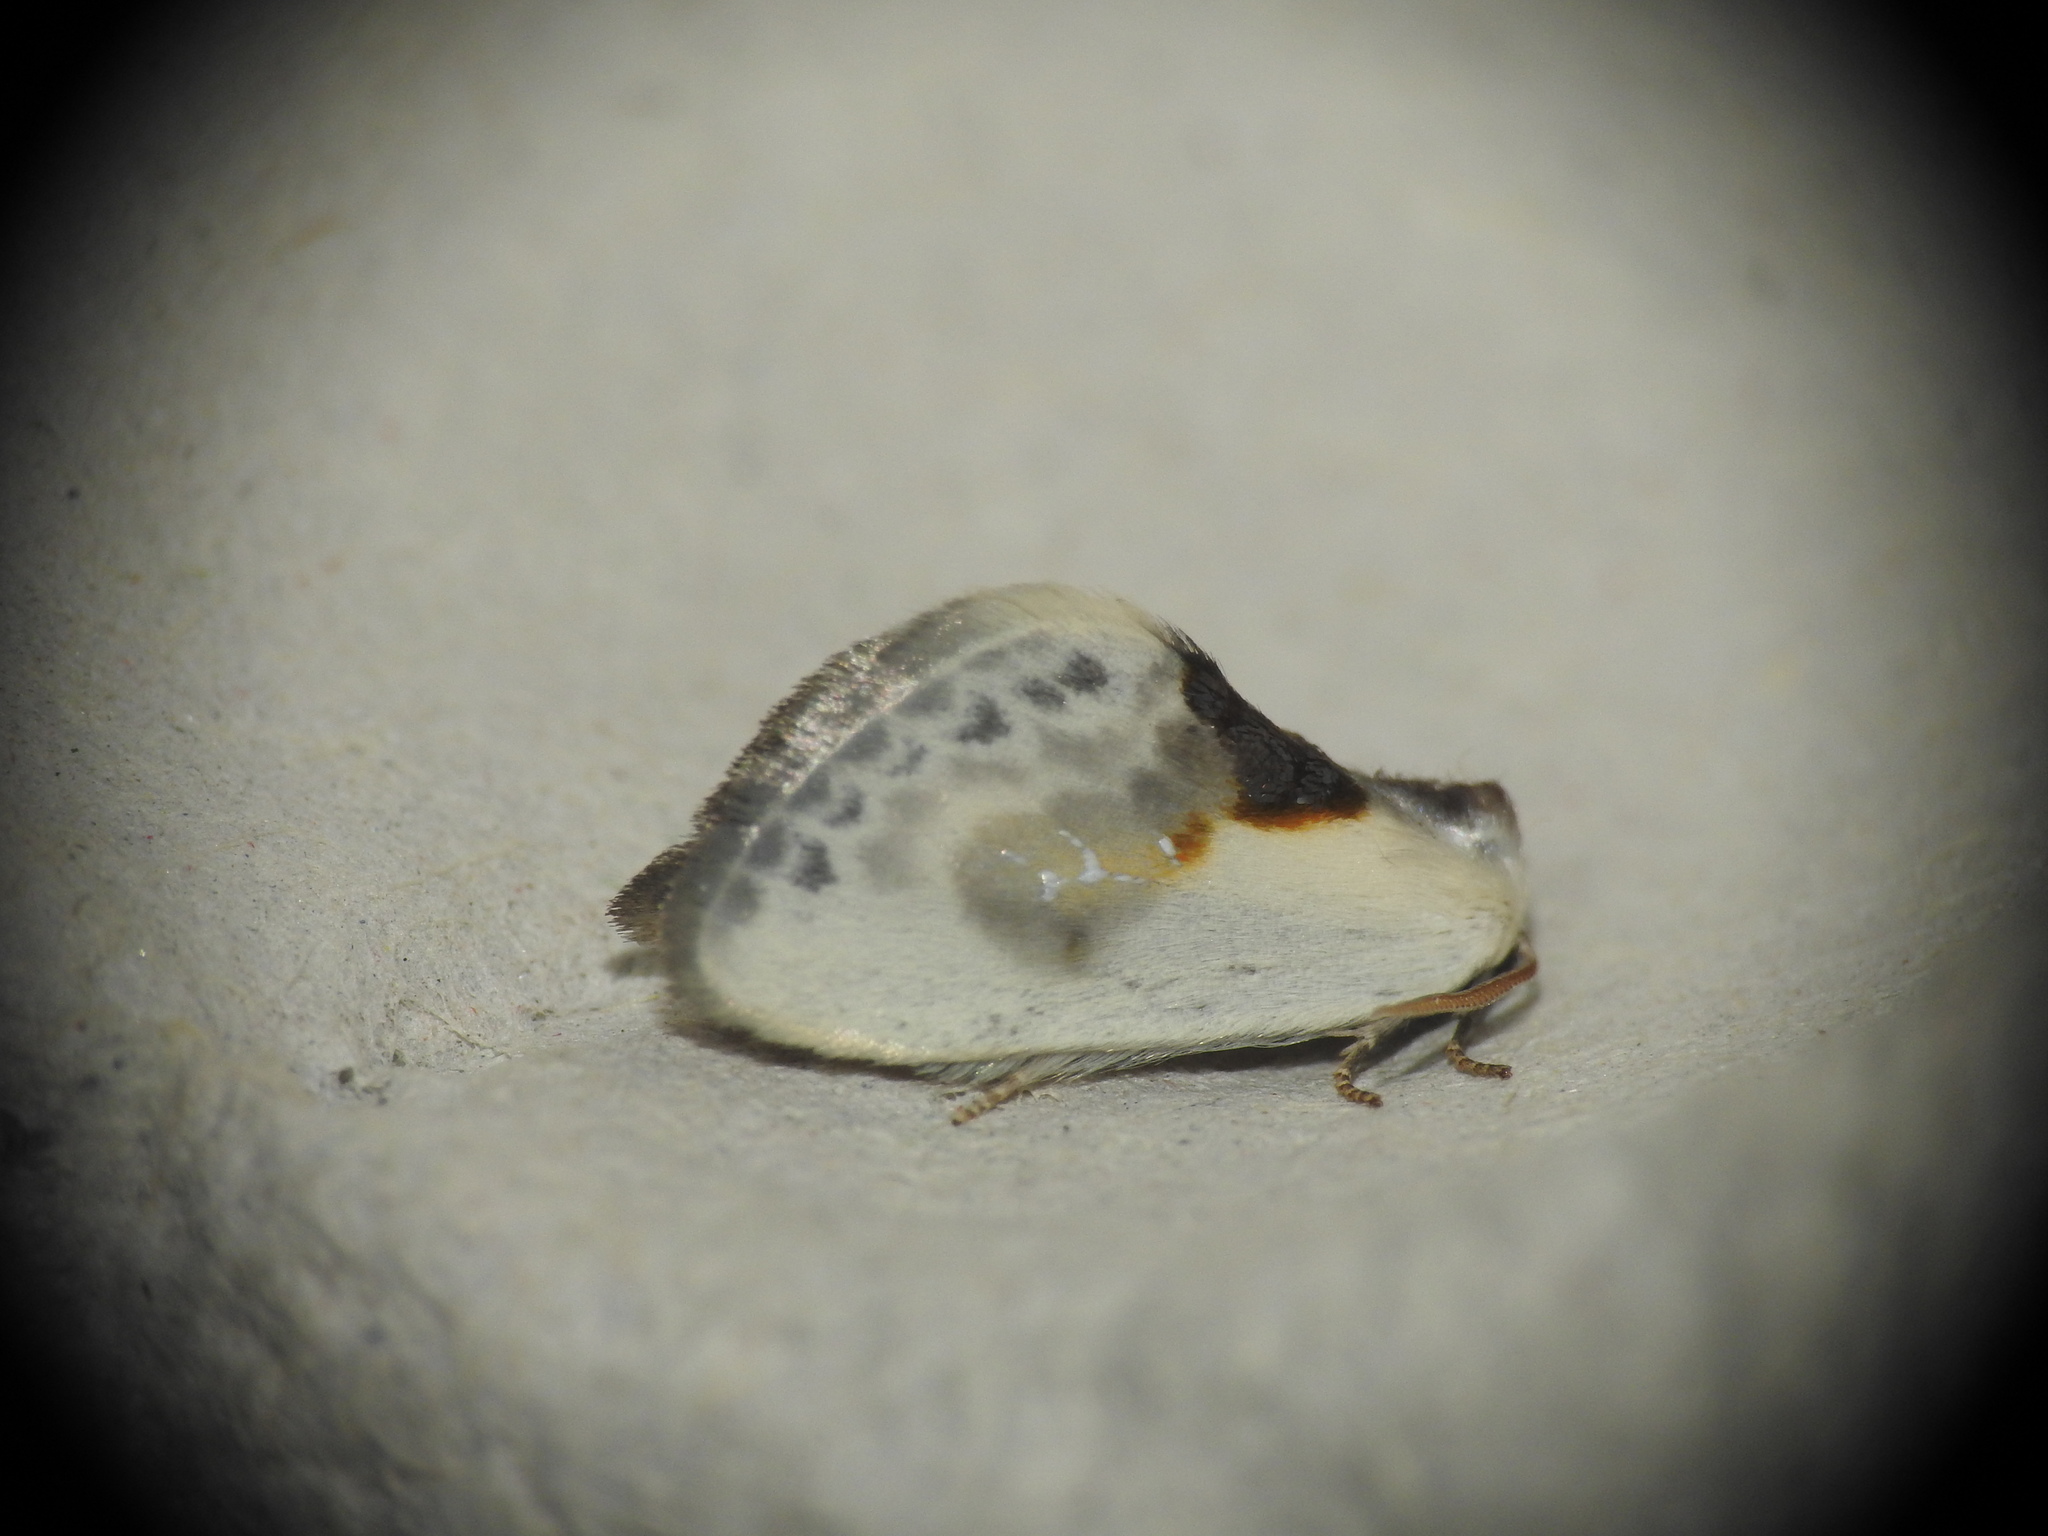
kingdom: Animalia
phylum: Arthropoda
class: Insecta
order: Lepidoptera
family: Drepanidae
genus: Cilix
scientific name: Cilix glaucata
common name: Chinese character
